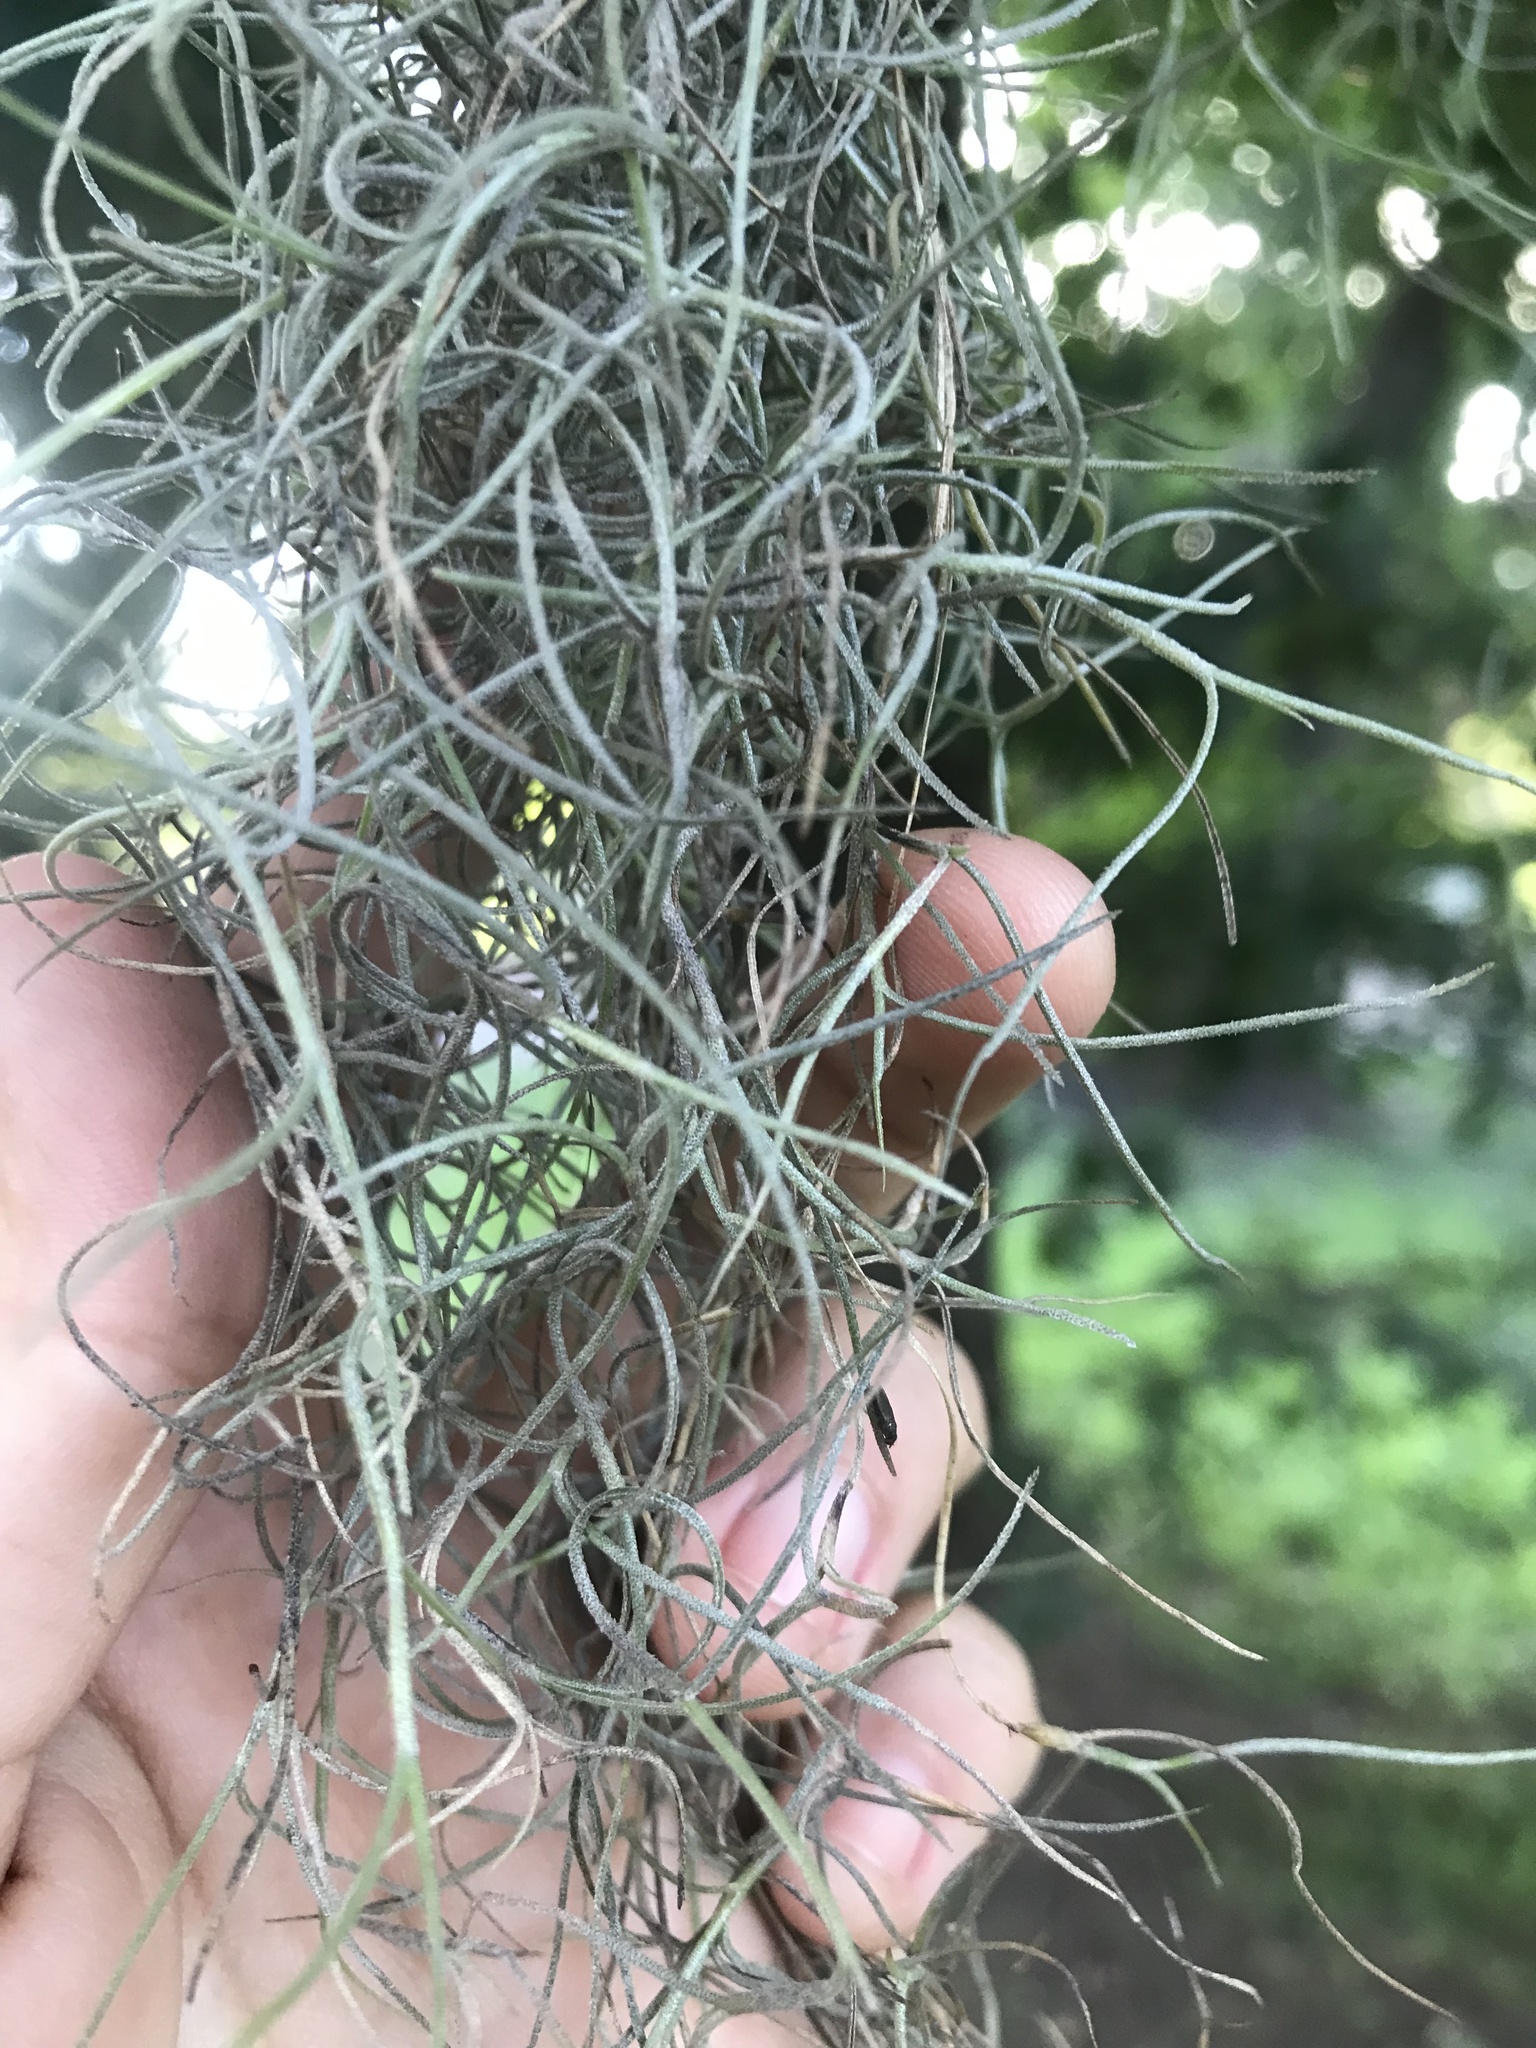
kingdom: Plantae
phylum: Tracheophyta
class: Liliopsida
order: Poales
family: Bromeliaceae
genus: Tillandsia
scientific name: Tillandsia usneoides
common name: Spanish moss
